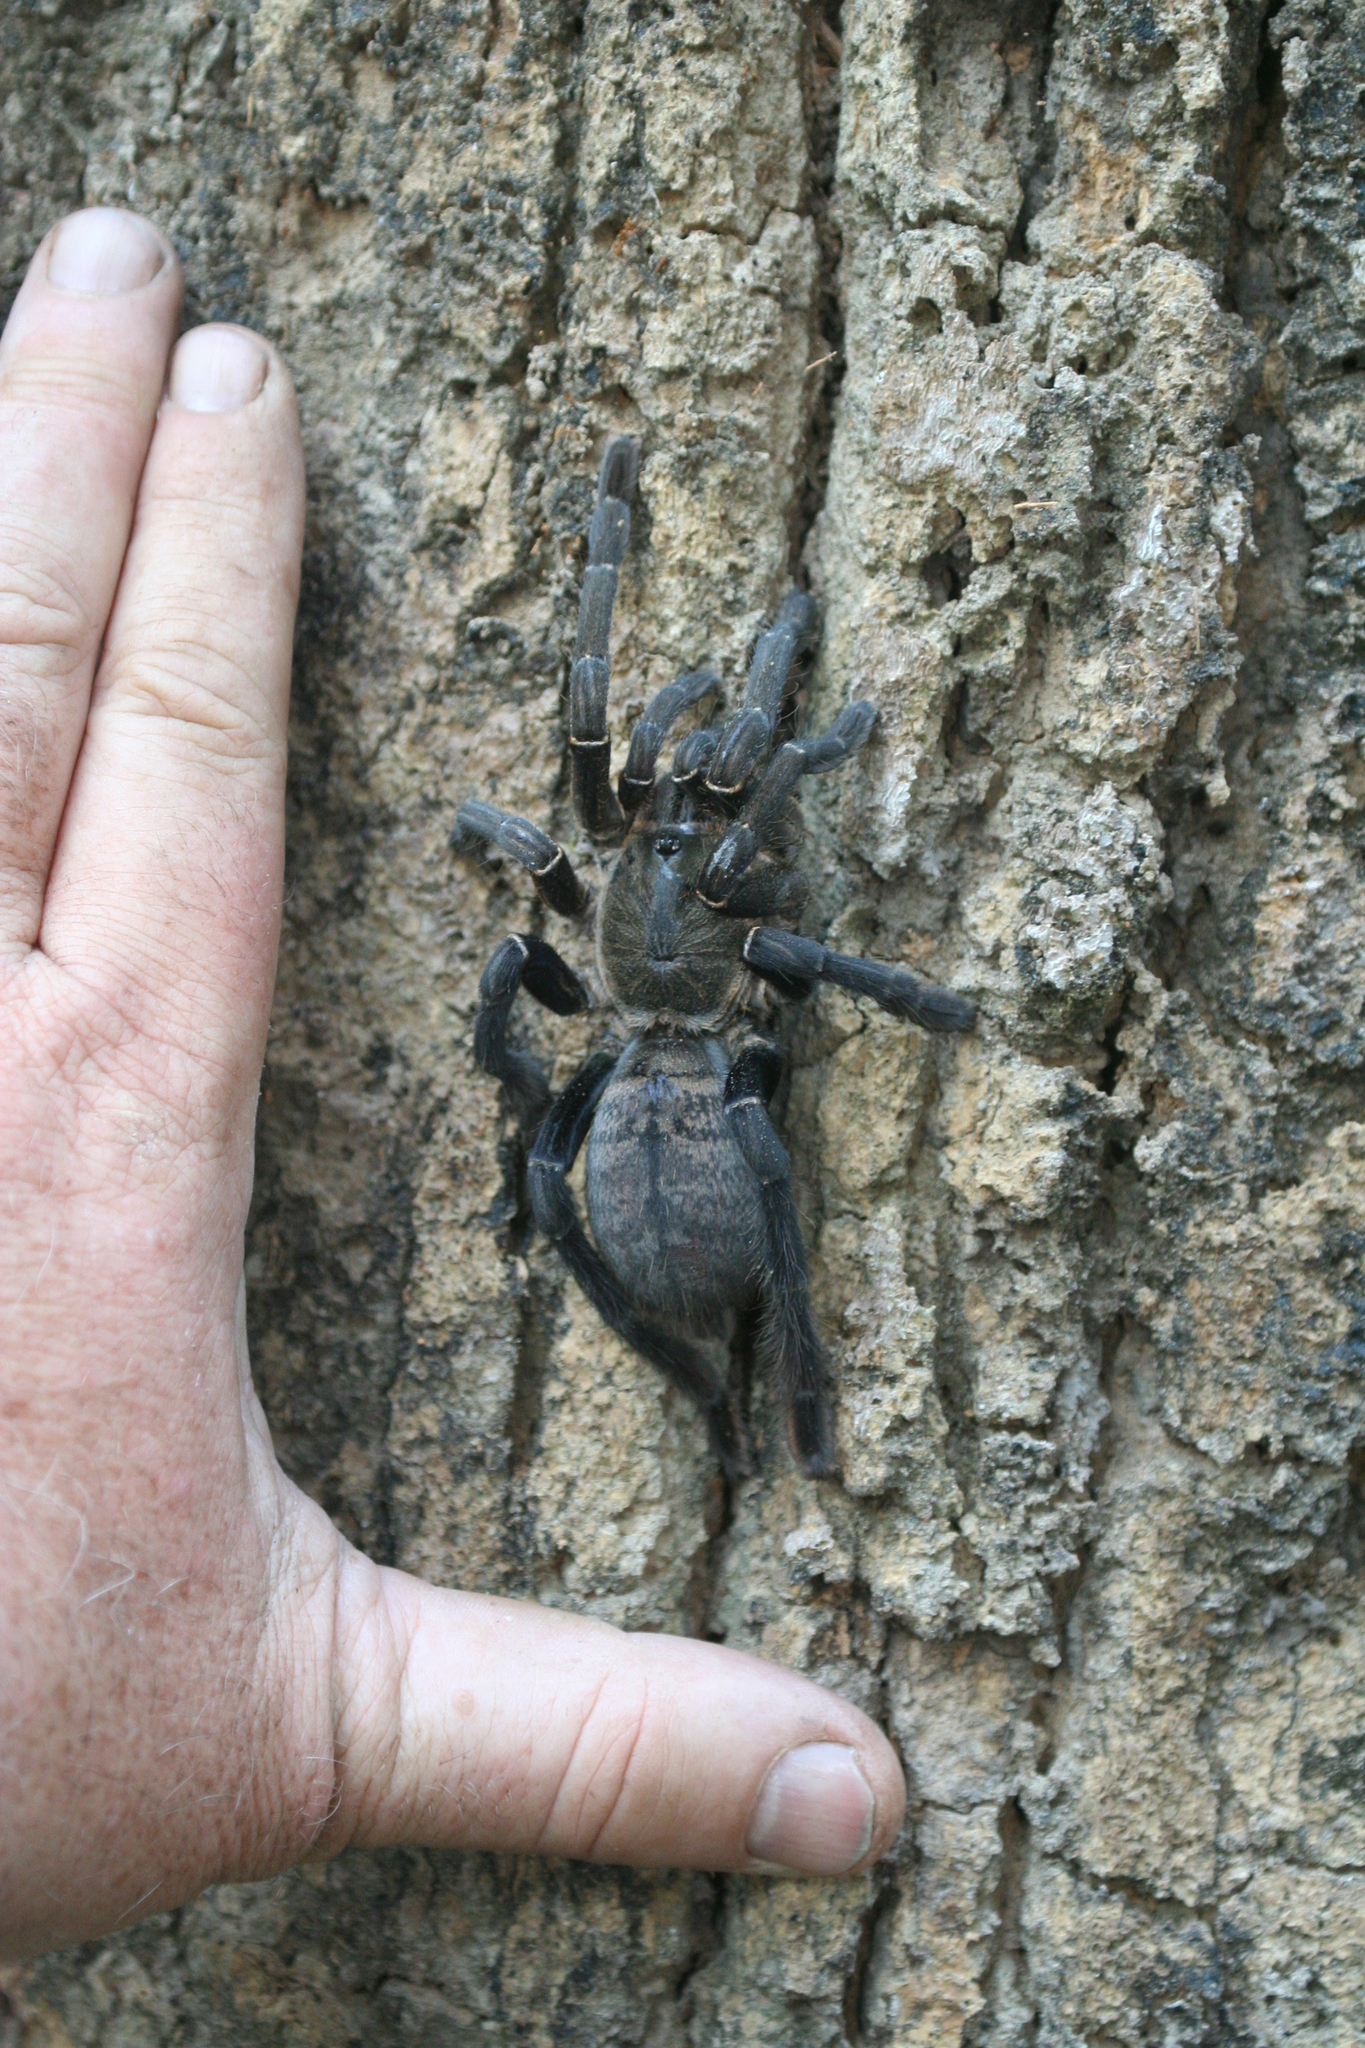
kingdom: Animalia
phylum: Arthropoda
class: Arachnida
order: Araneae
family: Theraphosidae
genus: Cyriopagopus
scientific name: Cyriopagopus longipes
